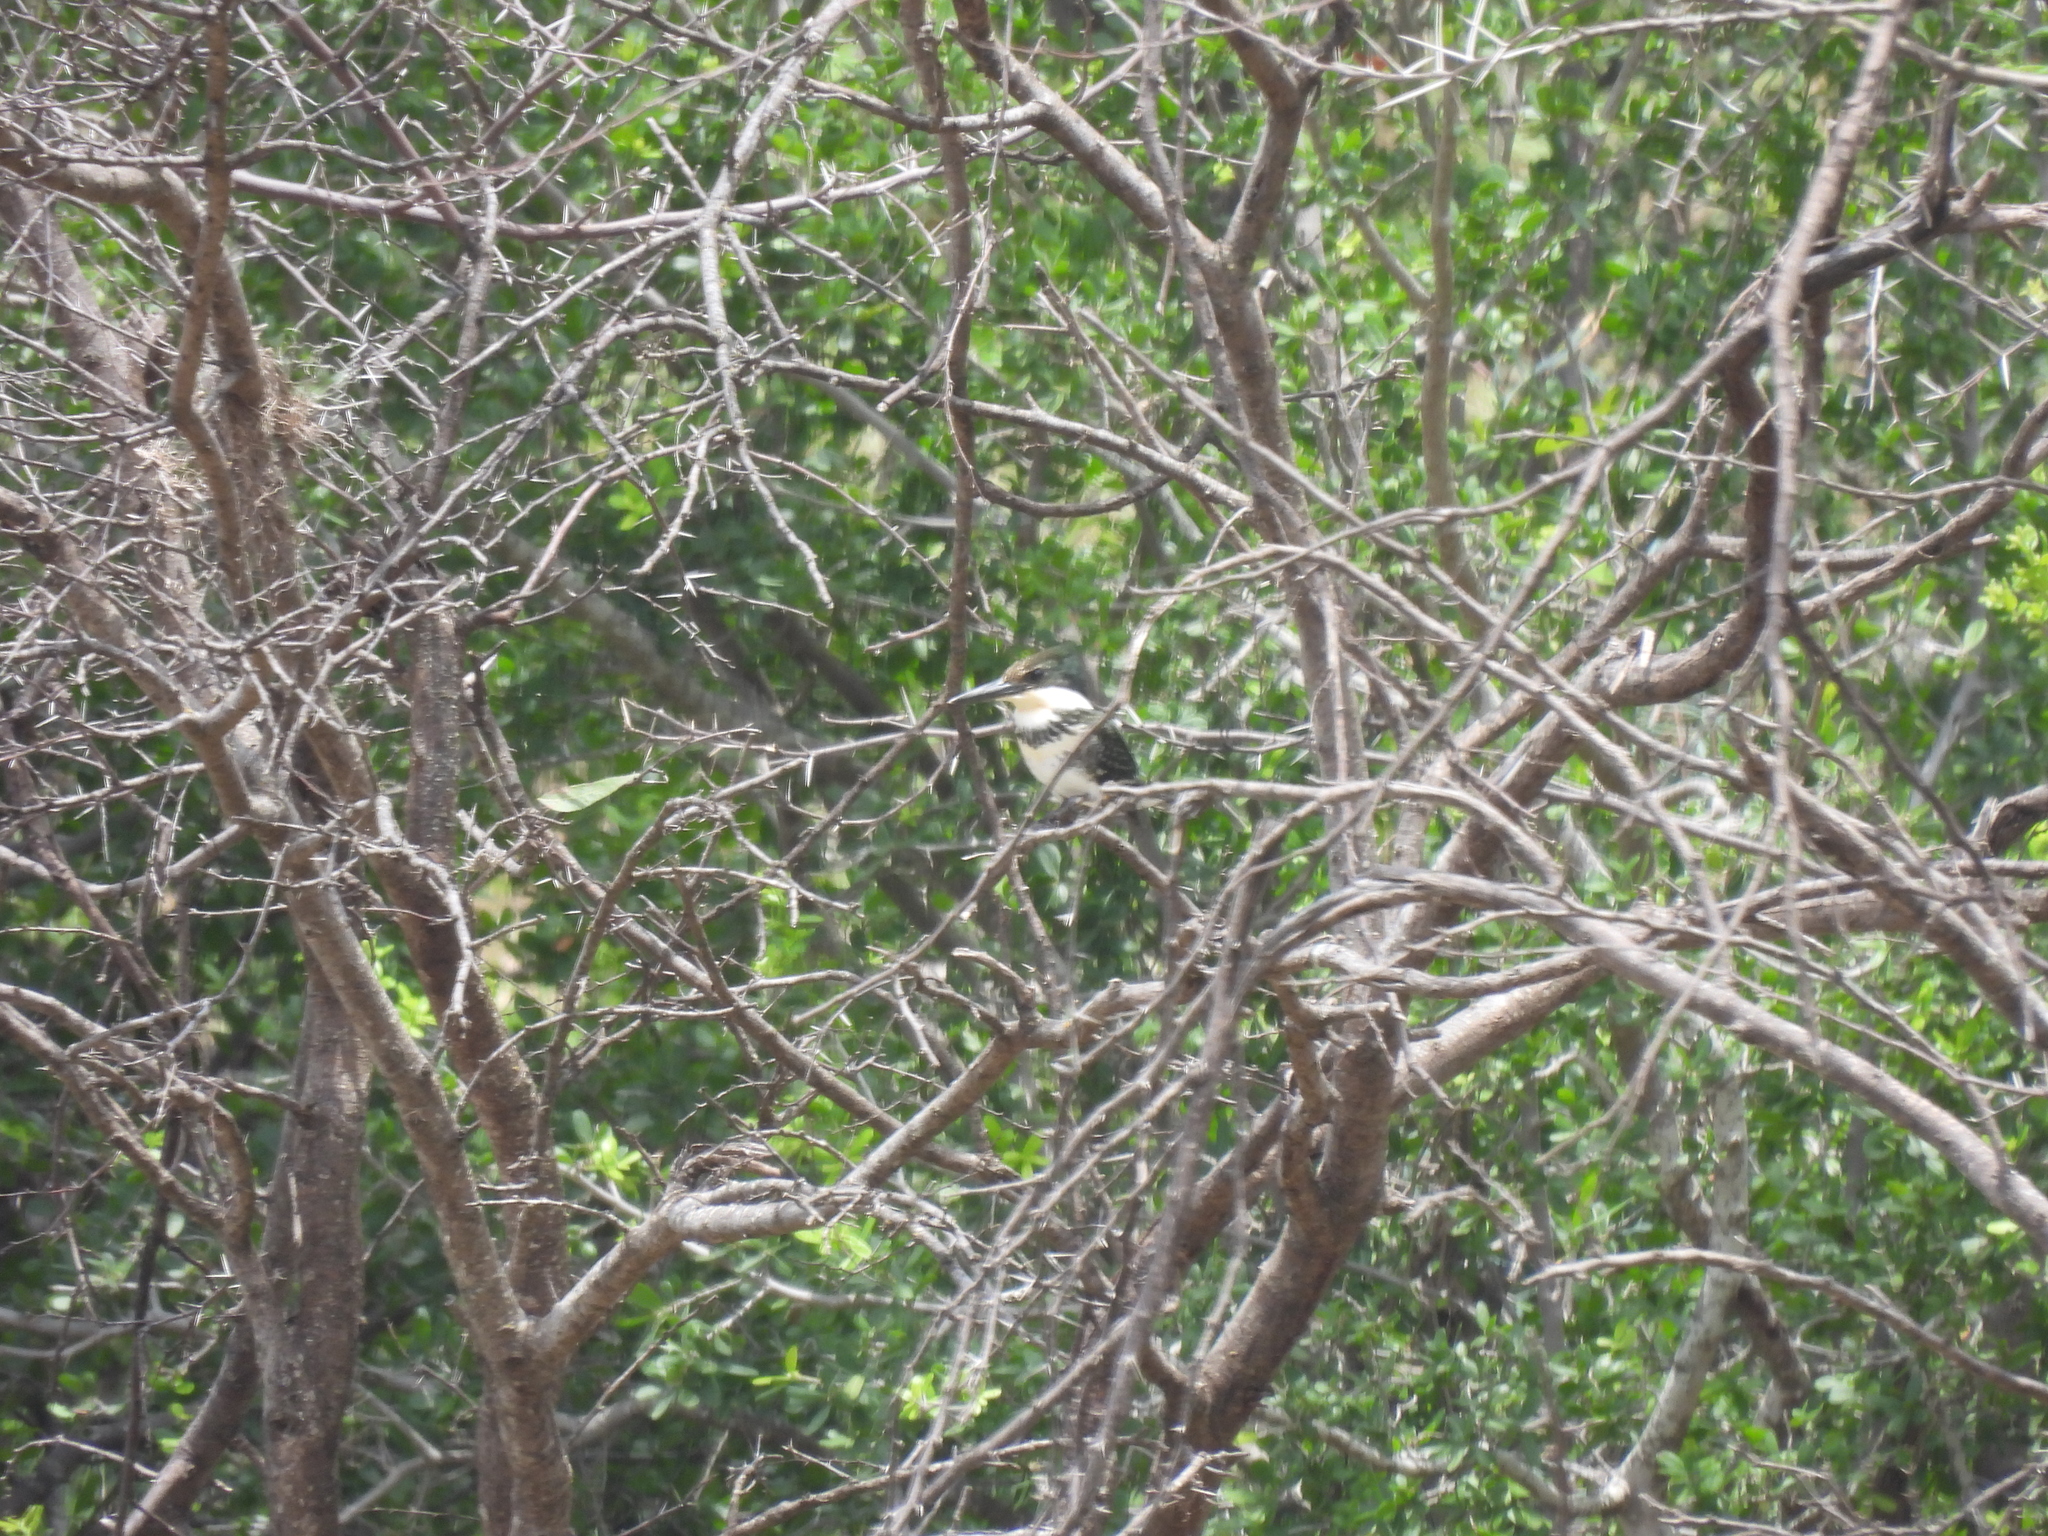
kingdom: Animalia
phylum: Chordata
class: Aves
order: Coraciiformes
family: Alcedinidae
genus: Chloroceryle
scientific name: Chloroceryle americana
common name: Green kingfisher
